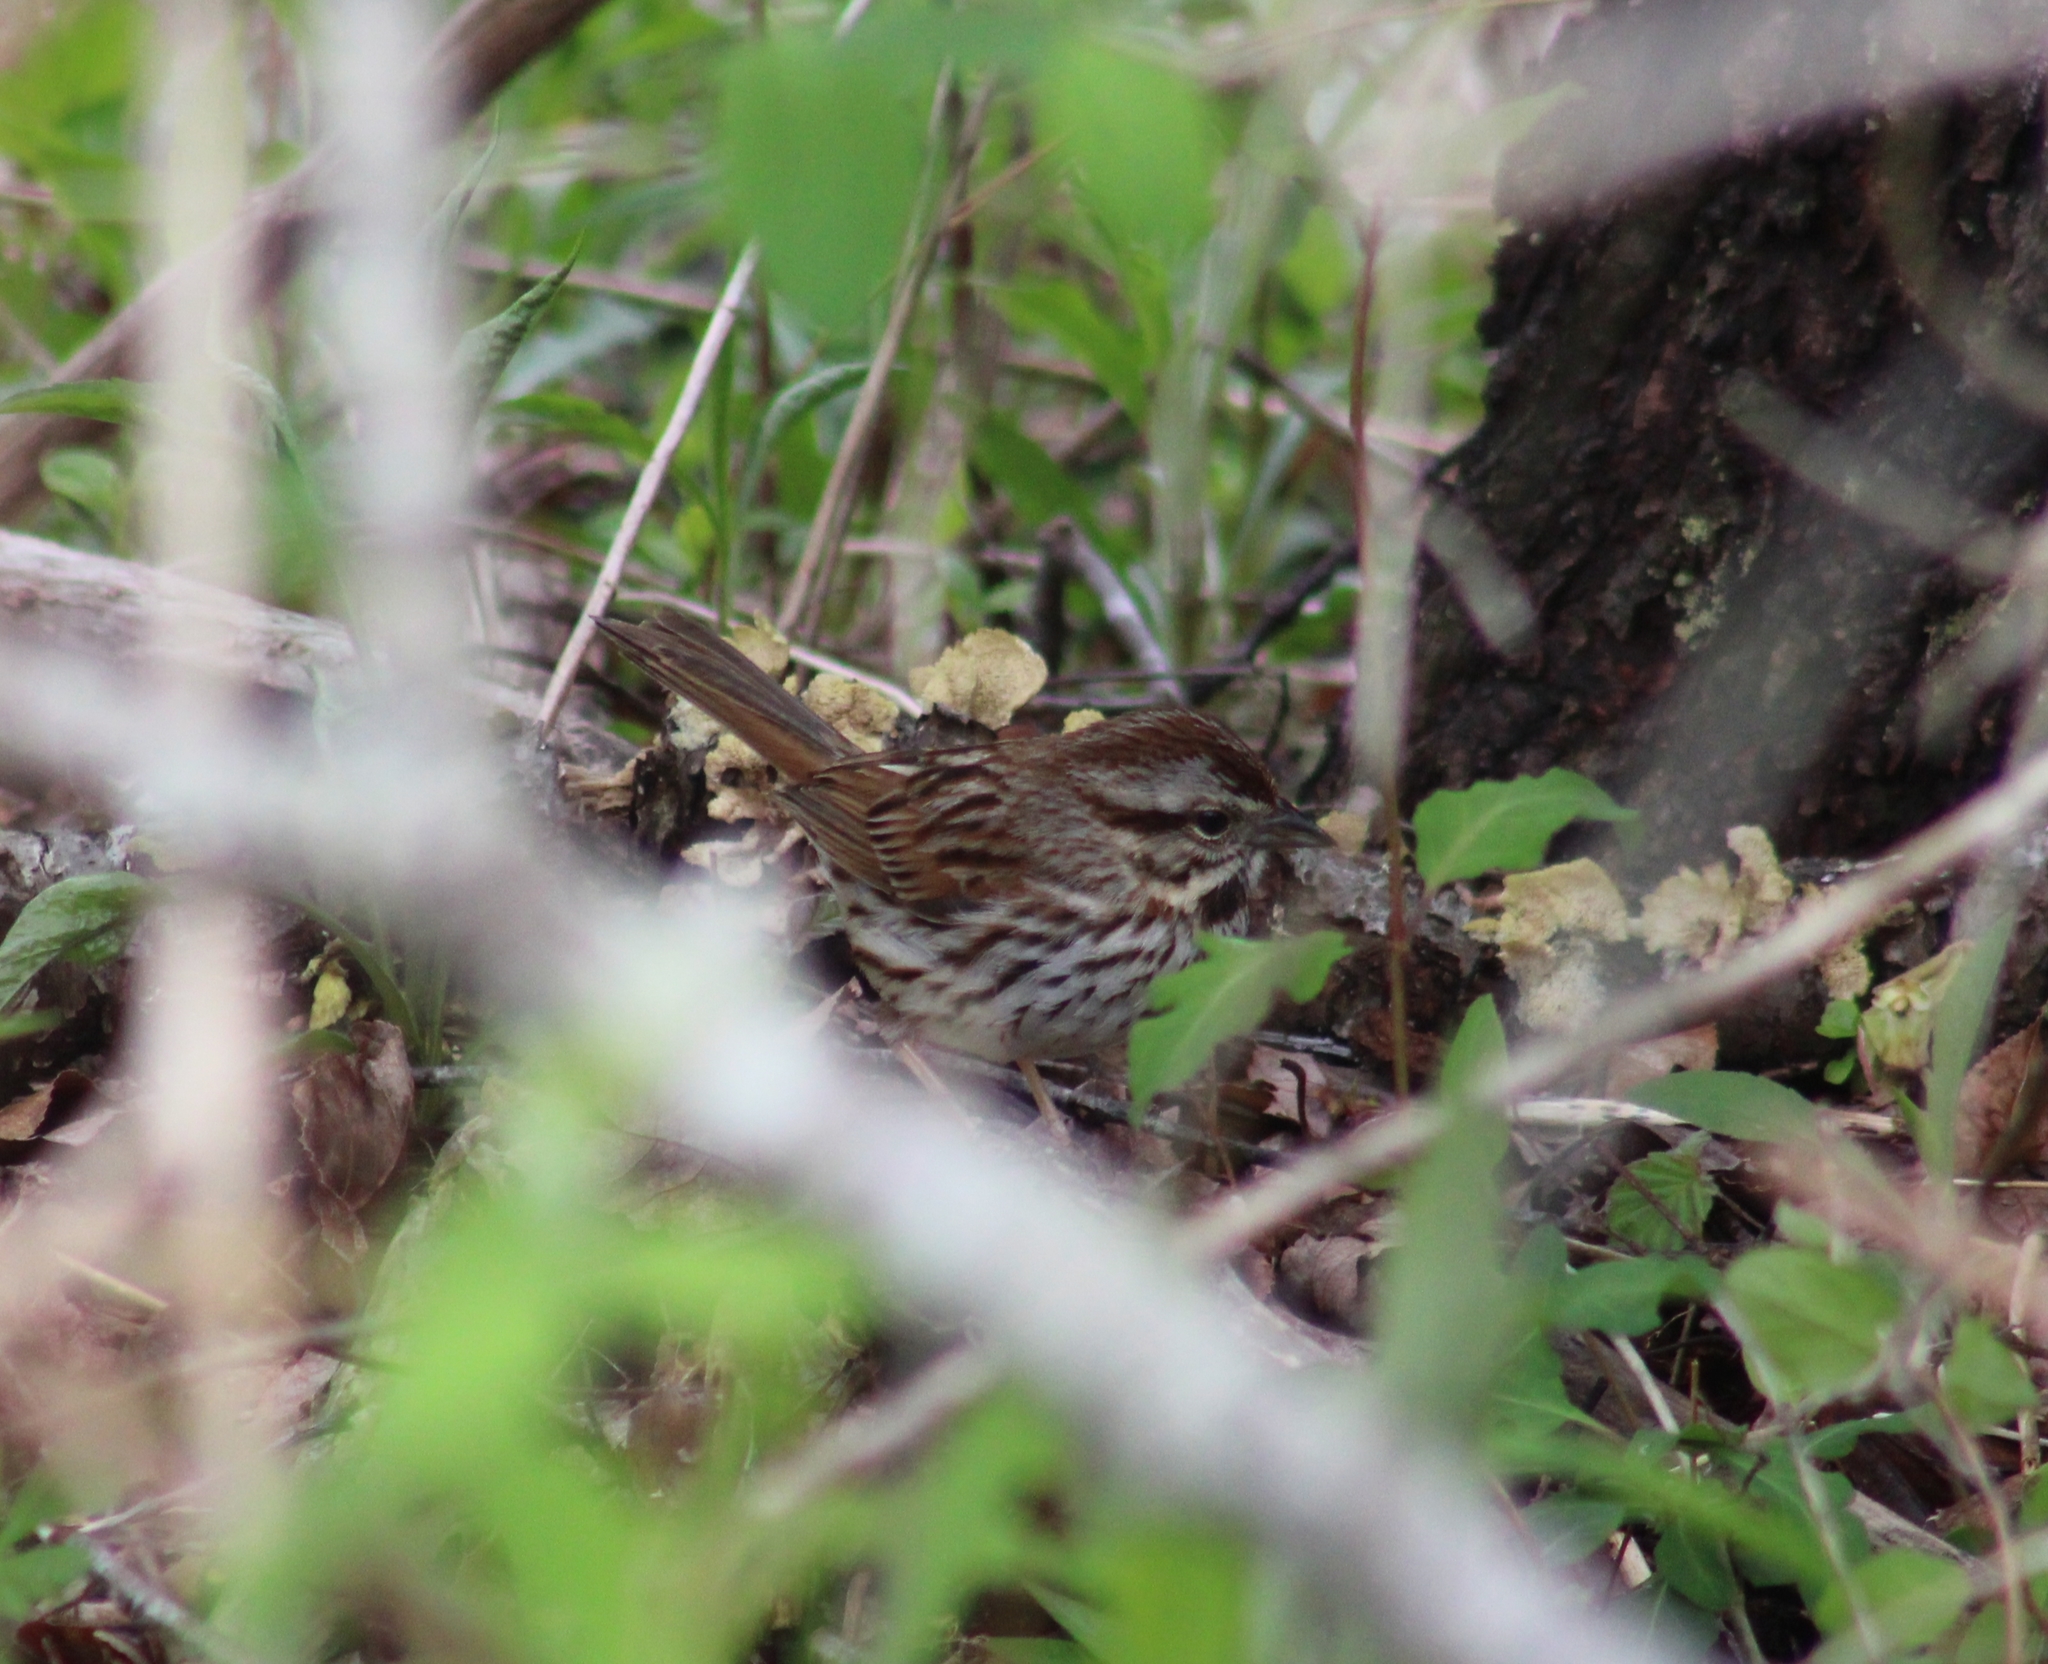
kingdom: Animalia
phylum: Chordata
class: Aves
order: Passeriformes
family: Passerellidae
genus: Melospiza
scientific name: Melospiza melodia
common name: Song sparrow
